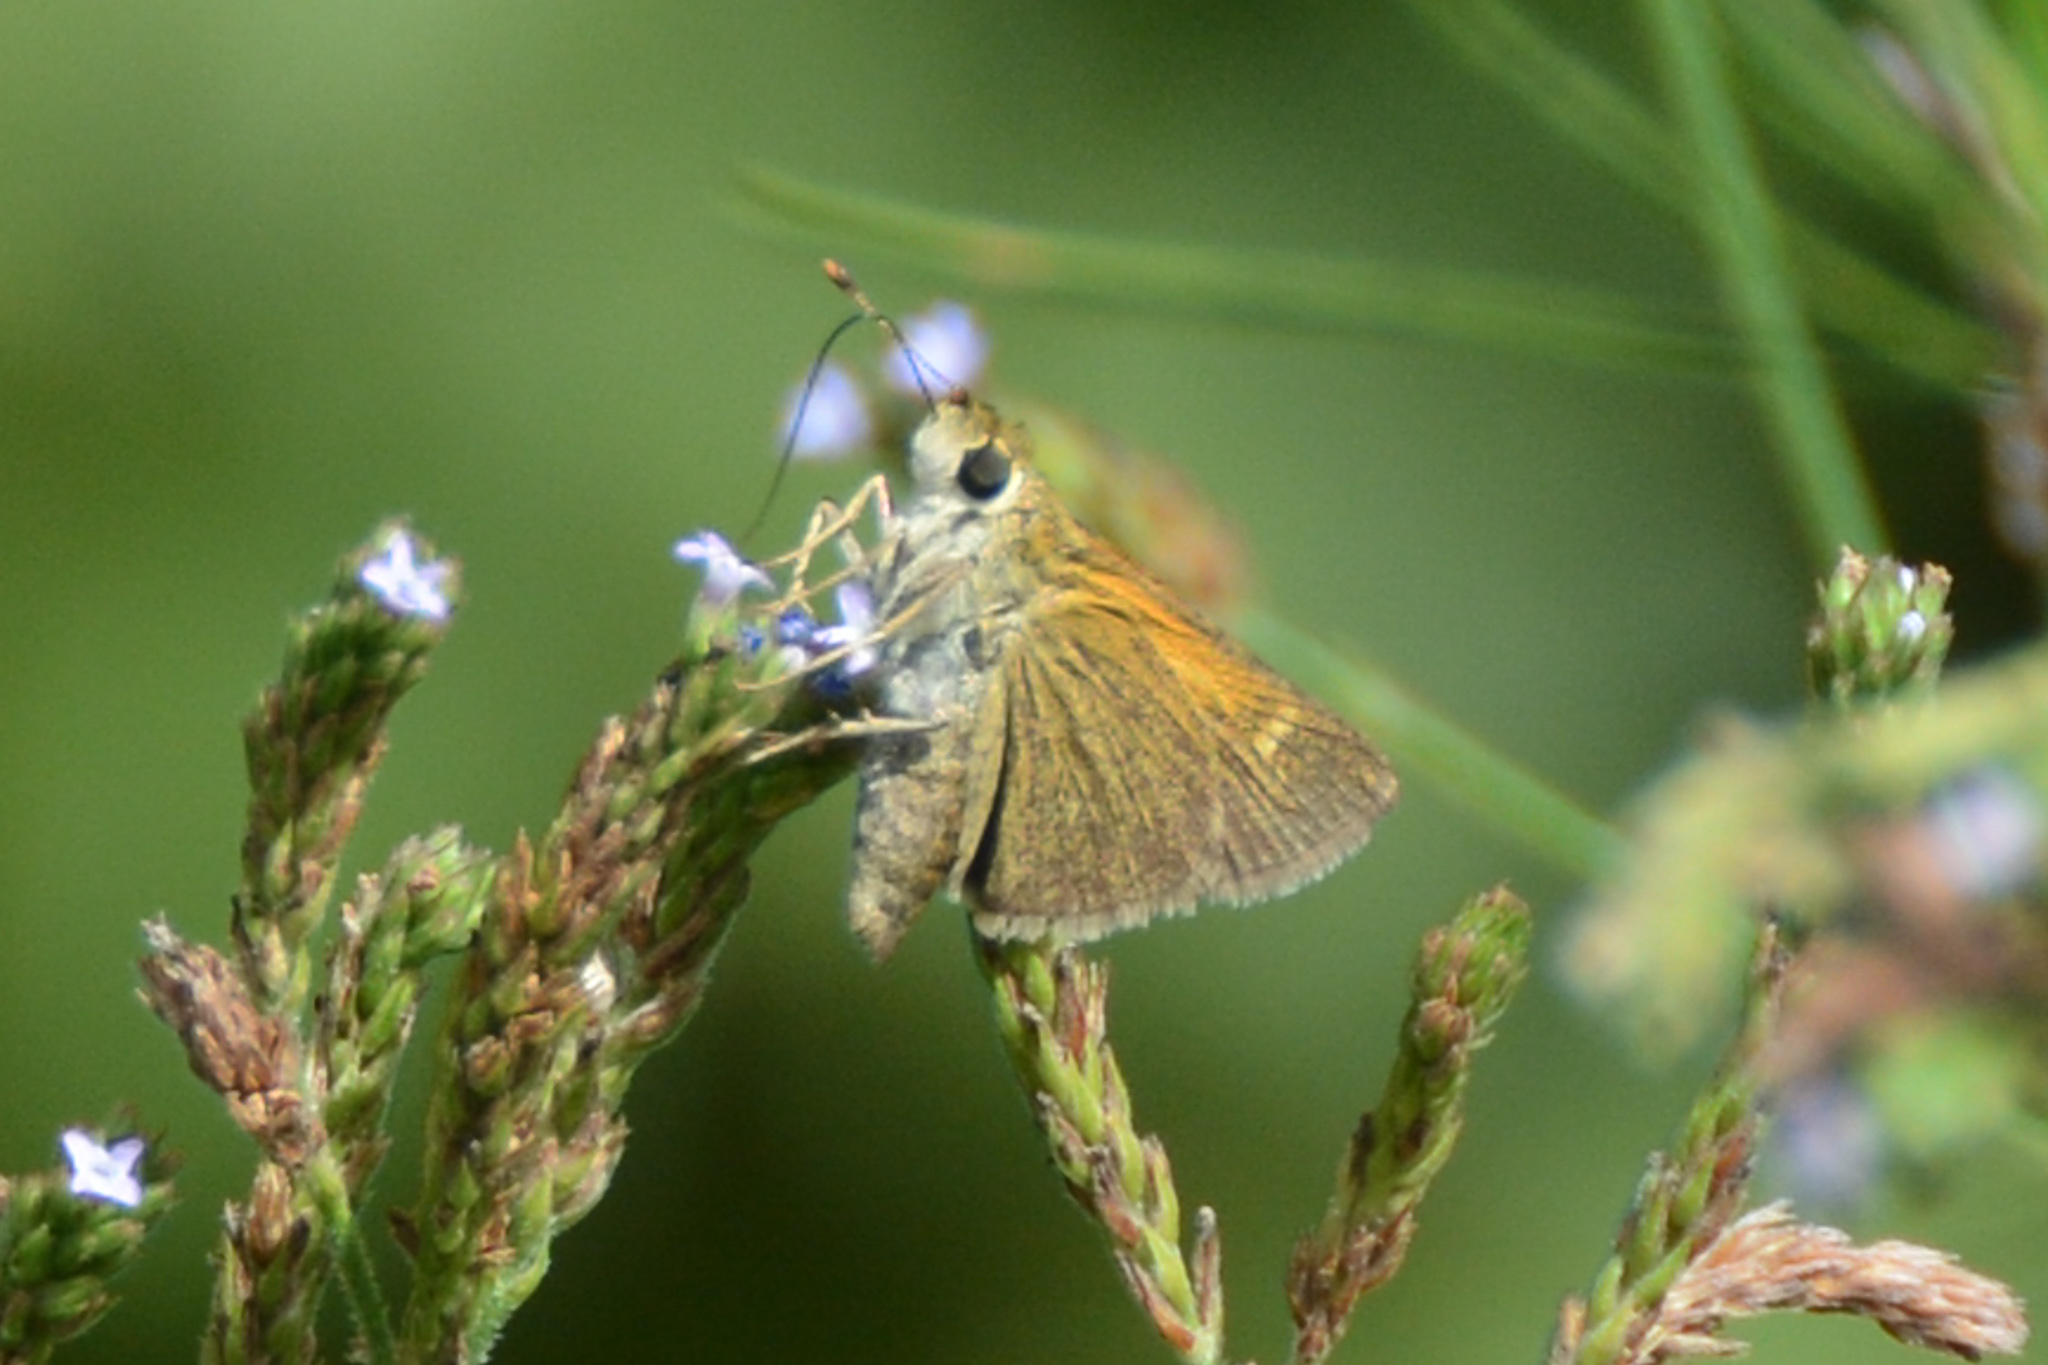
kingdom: Animalia
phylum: Arthropoda
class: Insecta
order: Lepidoptera
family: Hesperiidae
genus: Polites
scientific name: Polites themistocles
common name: Tawny-edged skipper
